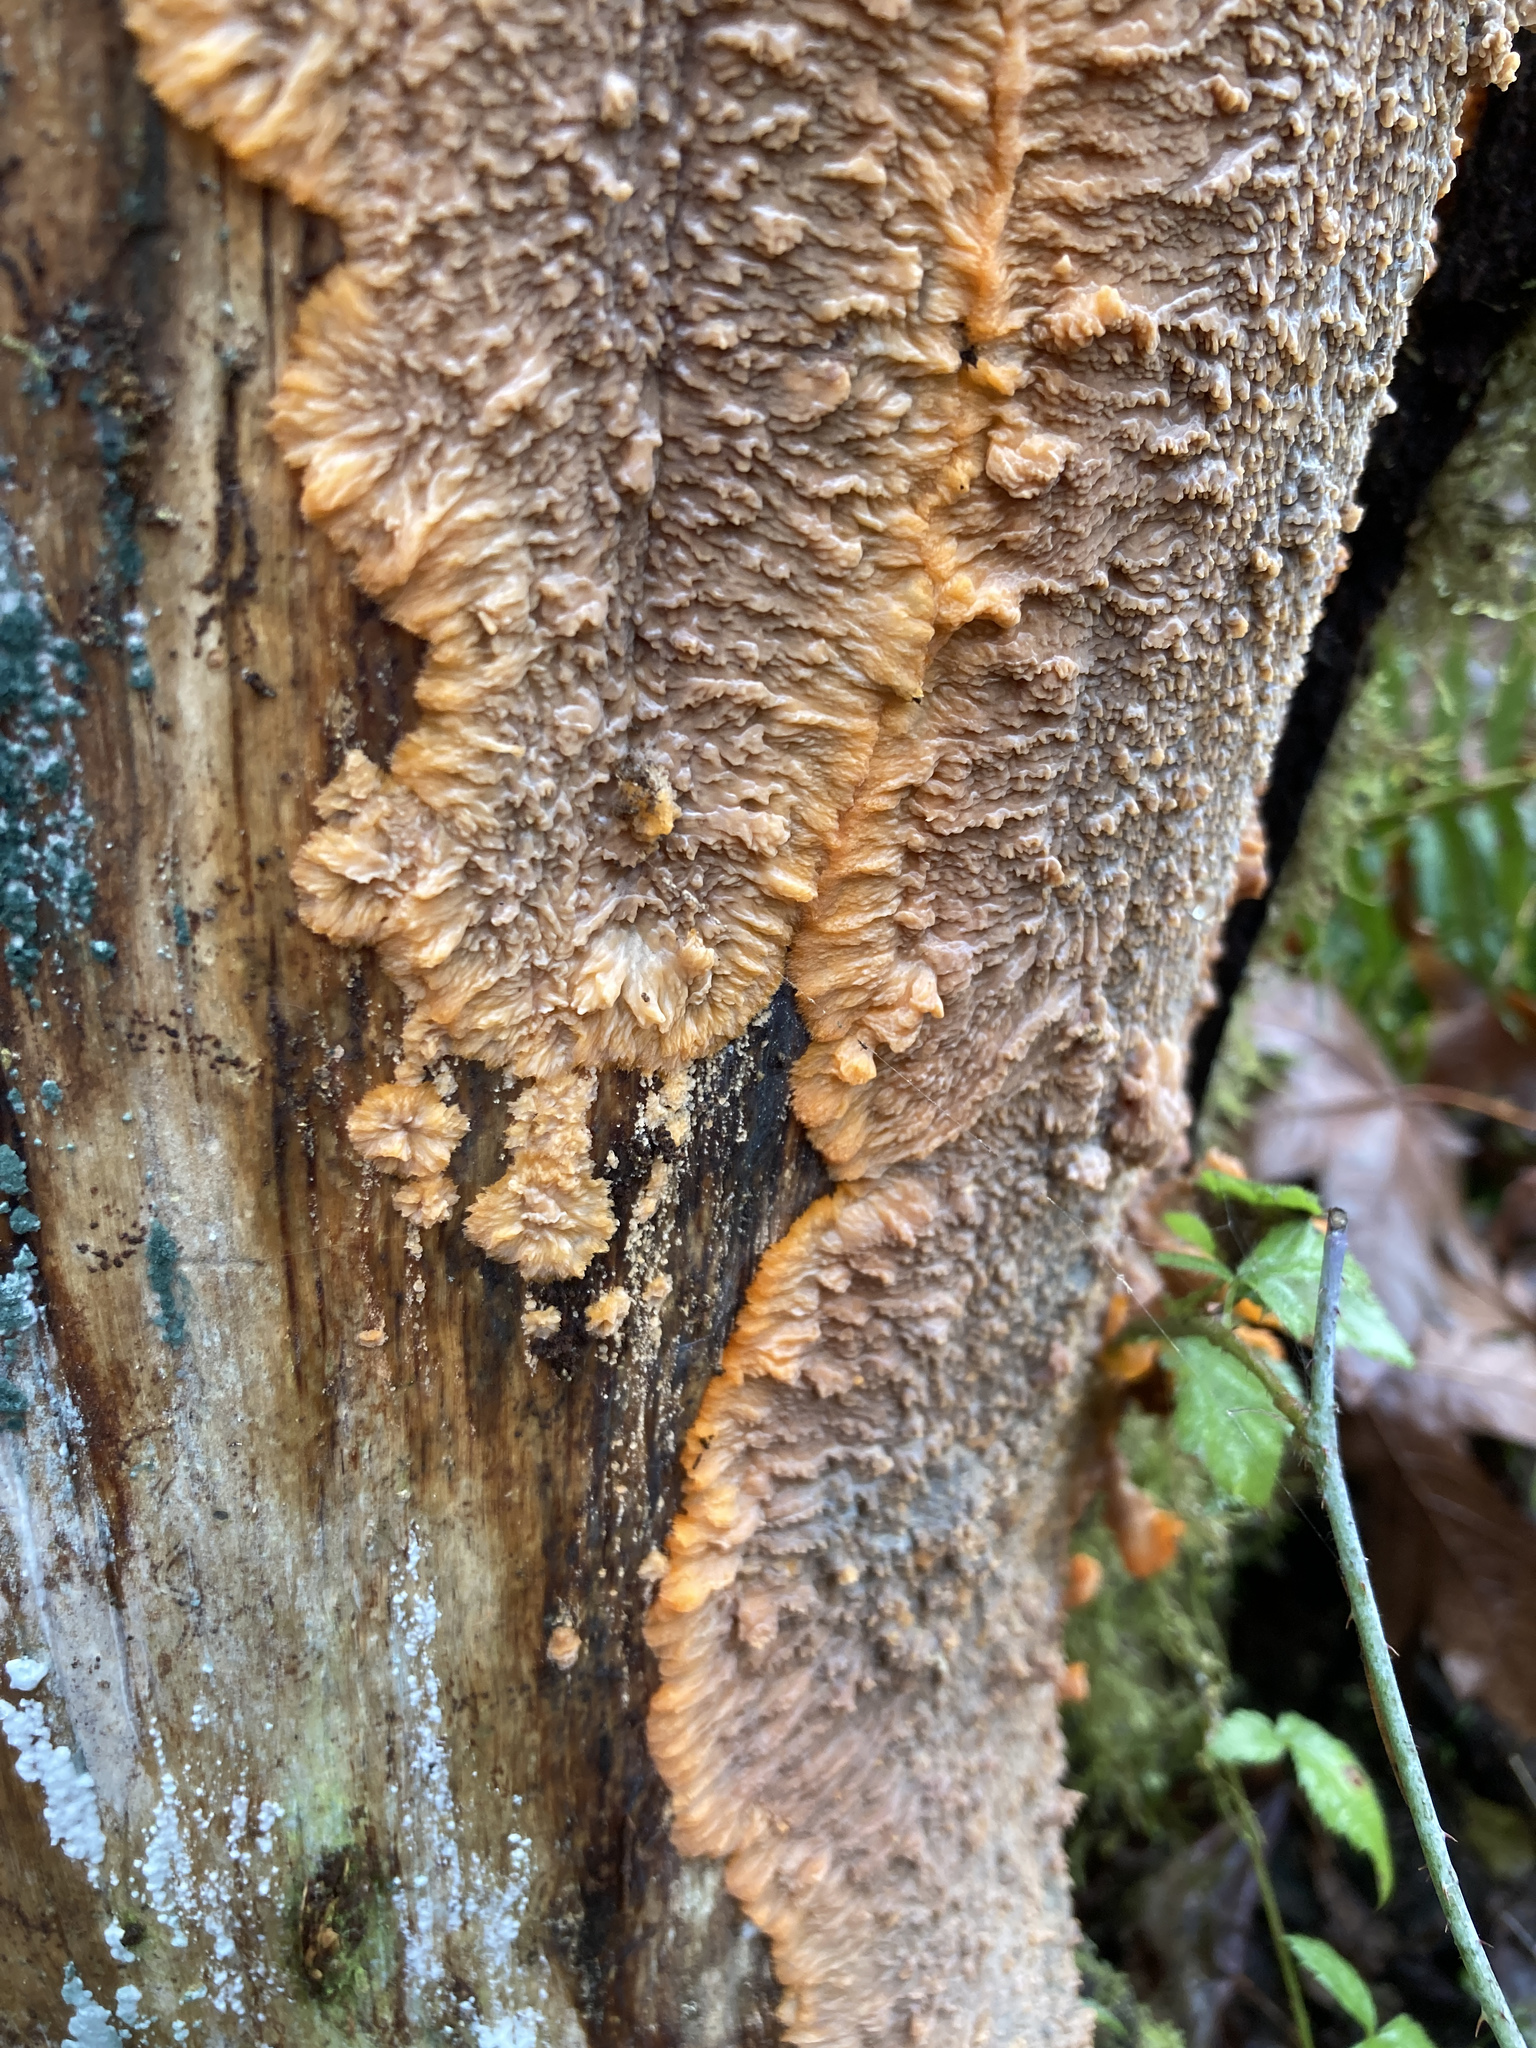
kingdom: Fungi
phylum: Basidiomycota
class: Agaricomycetes
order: Polyporales
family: Meruliaceae
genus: Phlebia
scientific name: Phlebia radiata
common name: Wrinkled crust
